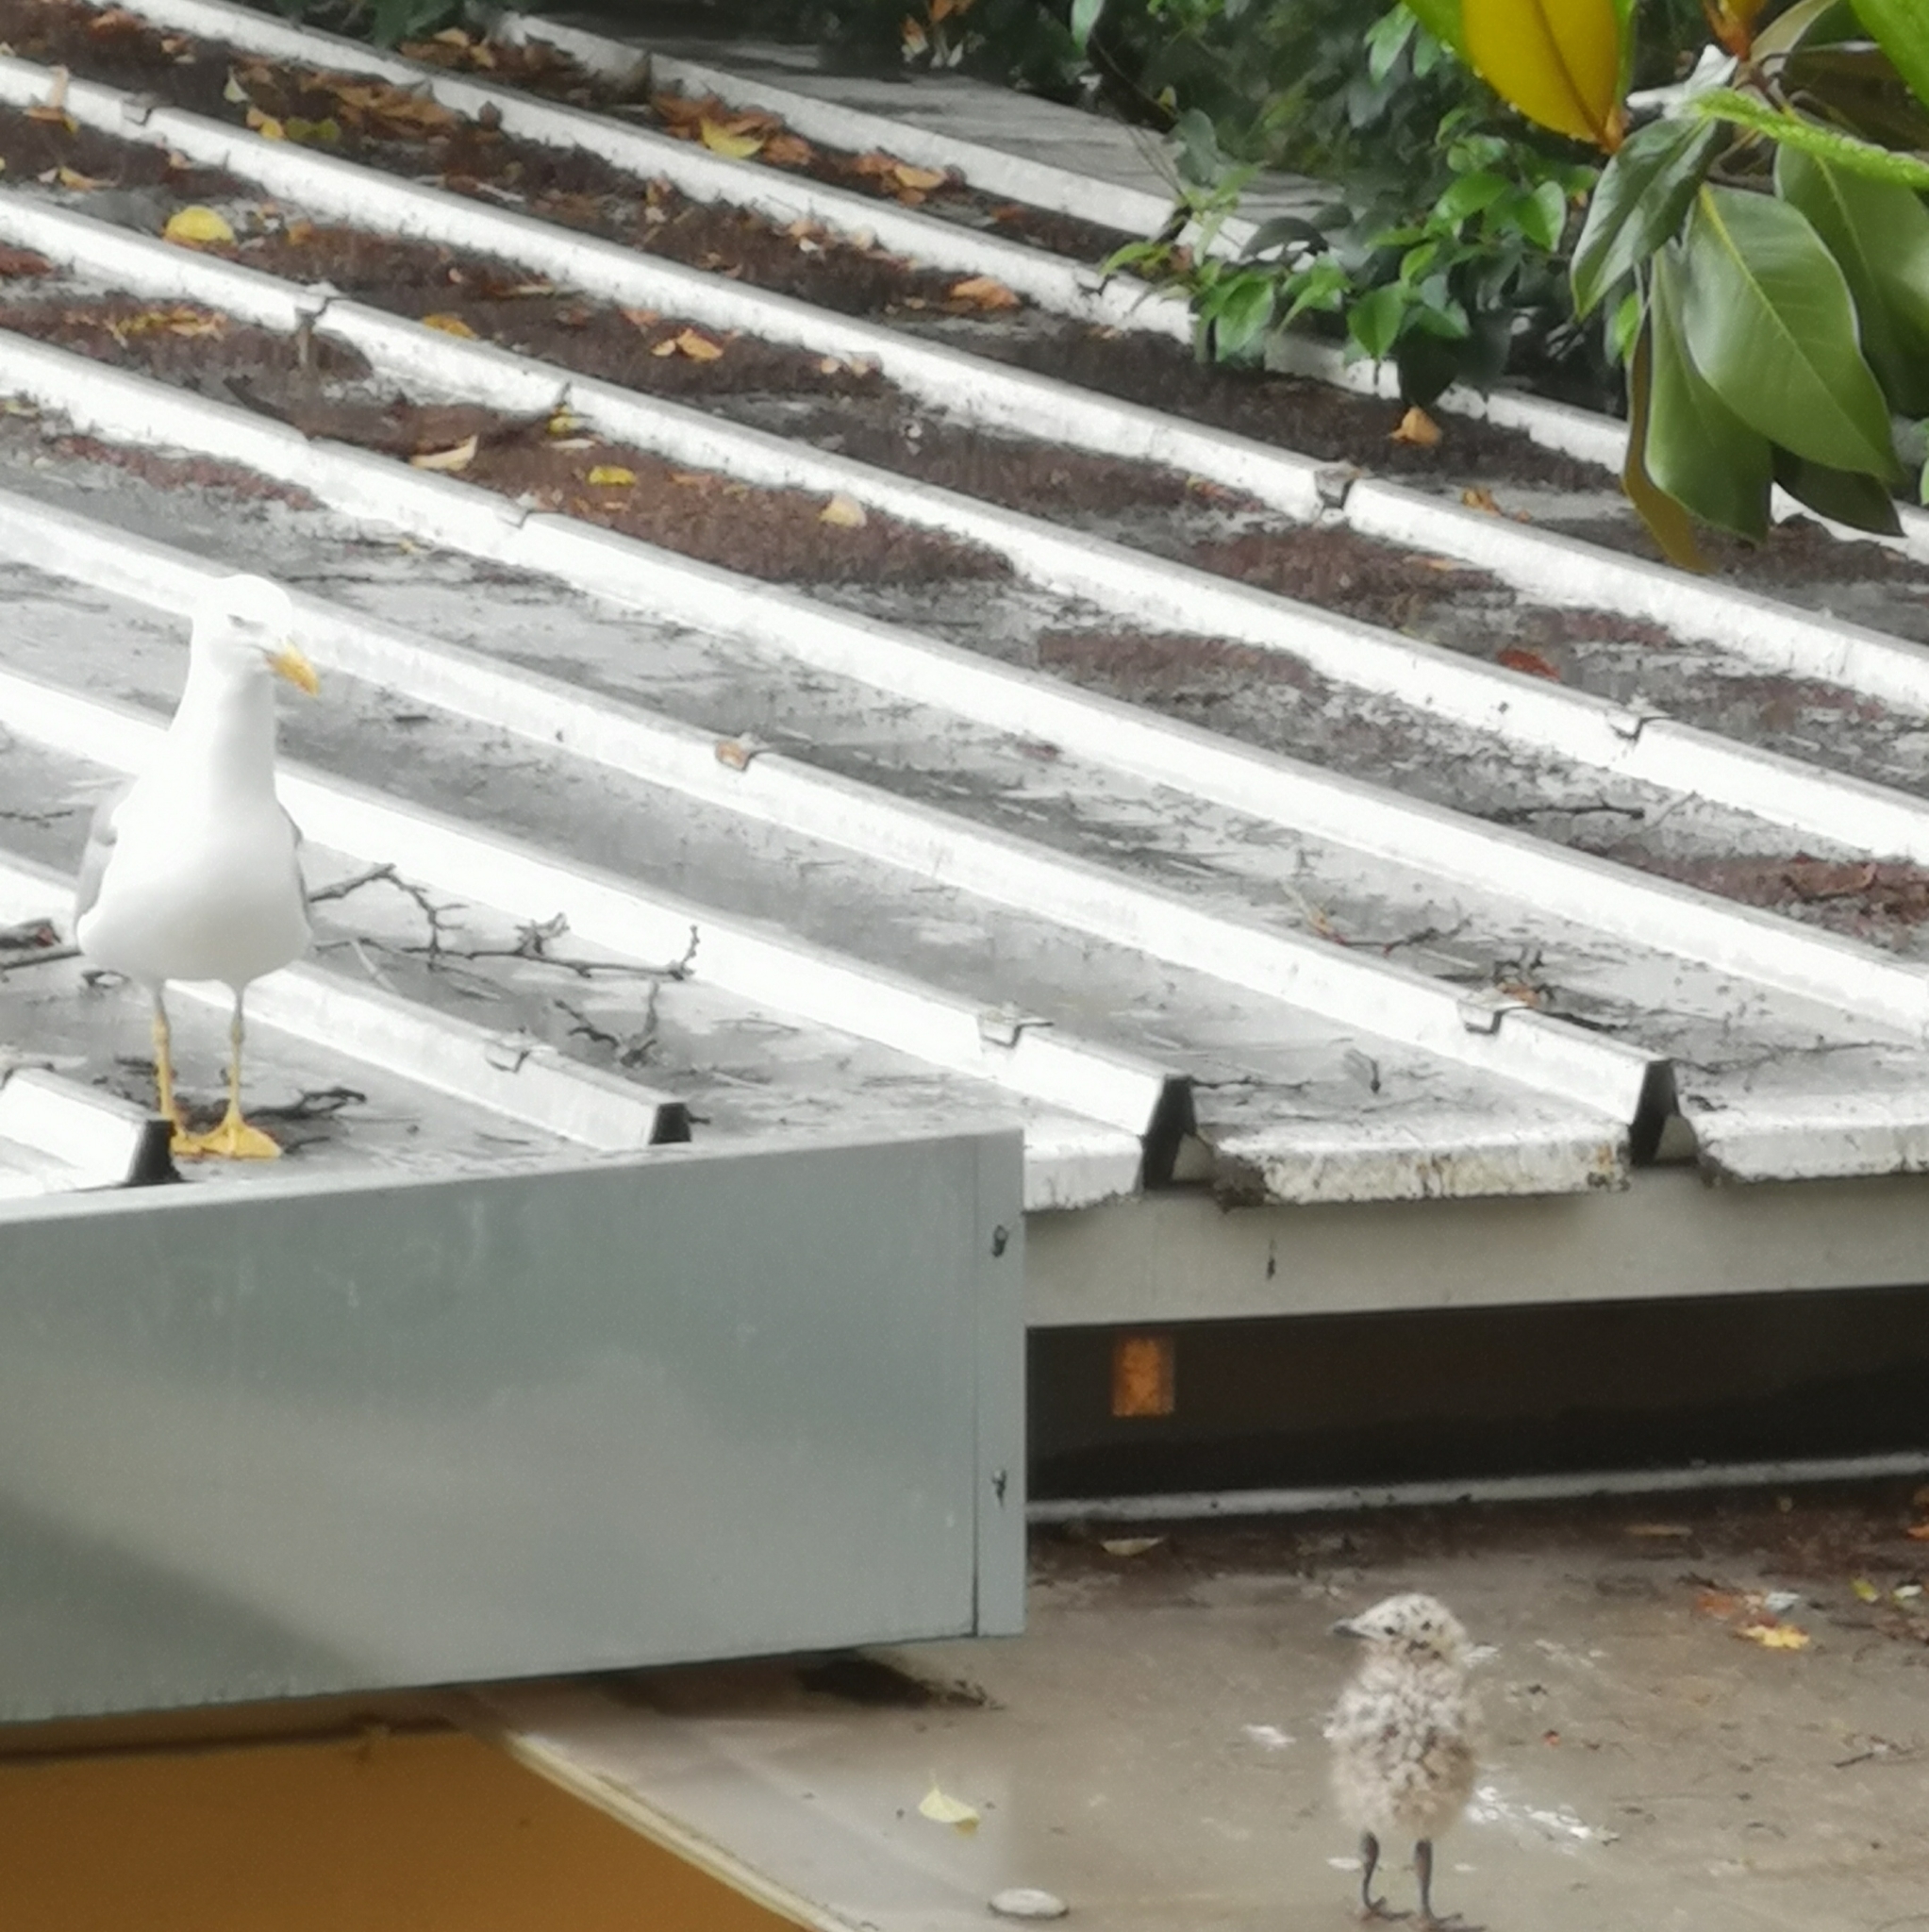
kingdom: Animalia
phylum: Chordata
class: Aves
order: Charadriiformes
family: Laridae
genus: Larus
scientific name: Larus michahellis
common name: Yellow-legged gull
